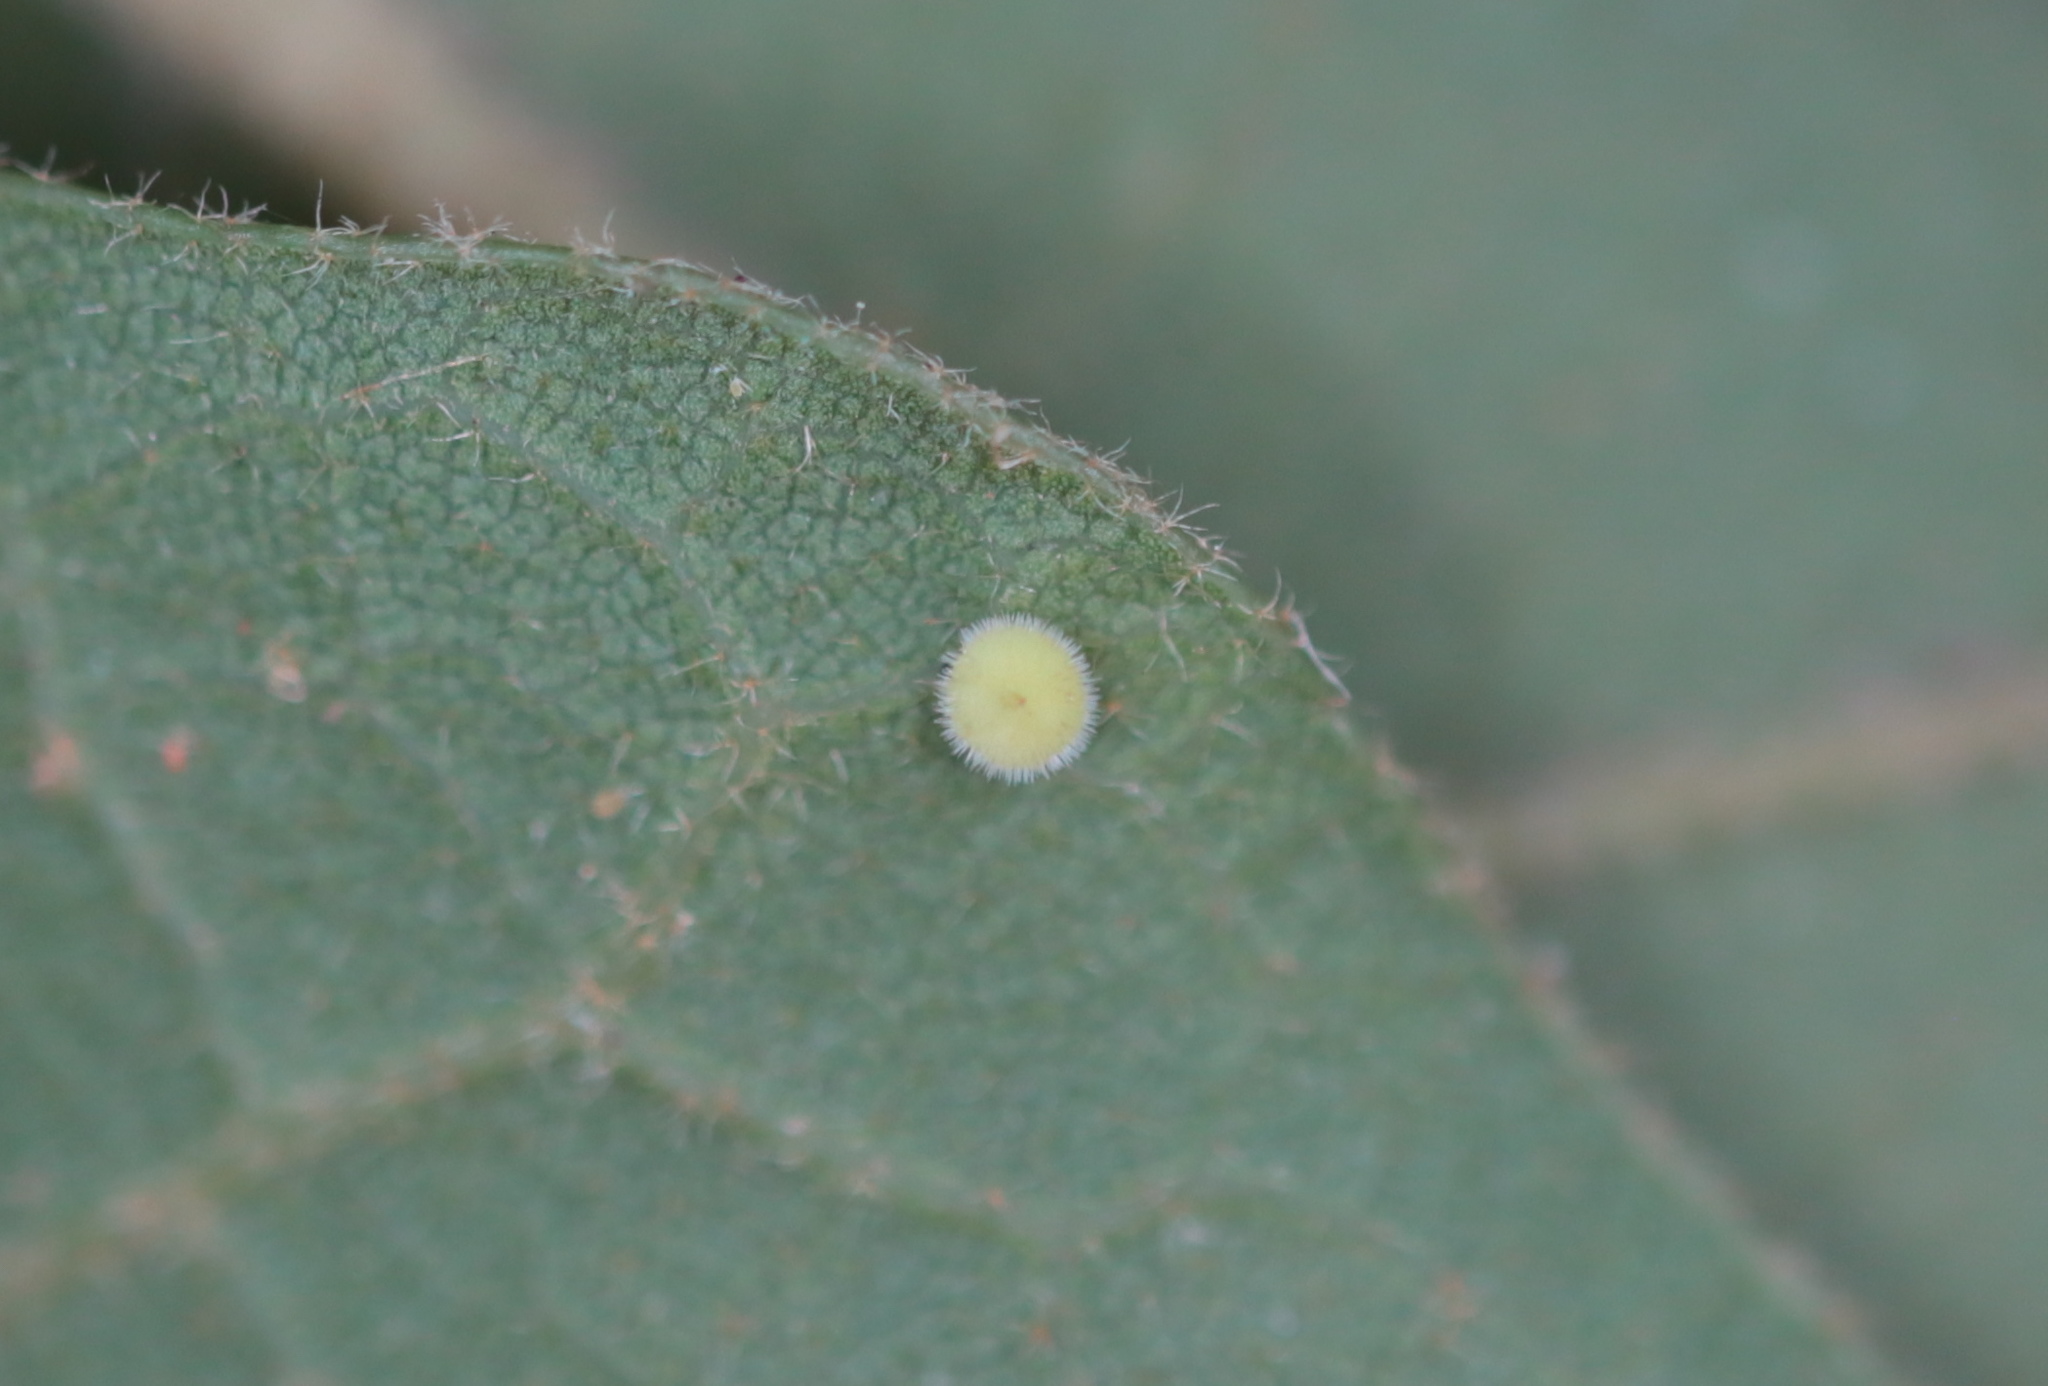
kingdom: Animalia
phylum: Arthropoda
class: Insecta
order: Hymenoptera
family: Cynipidae
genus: Neuroterus
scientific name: Neuroterus saltarius
